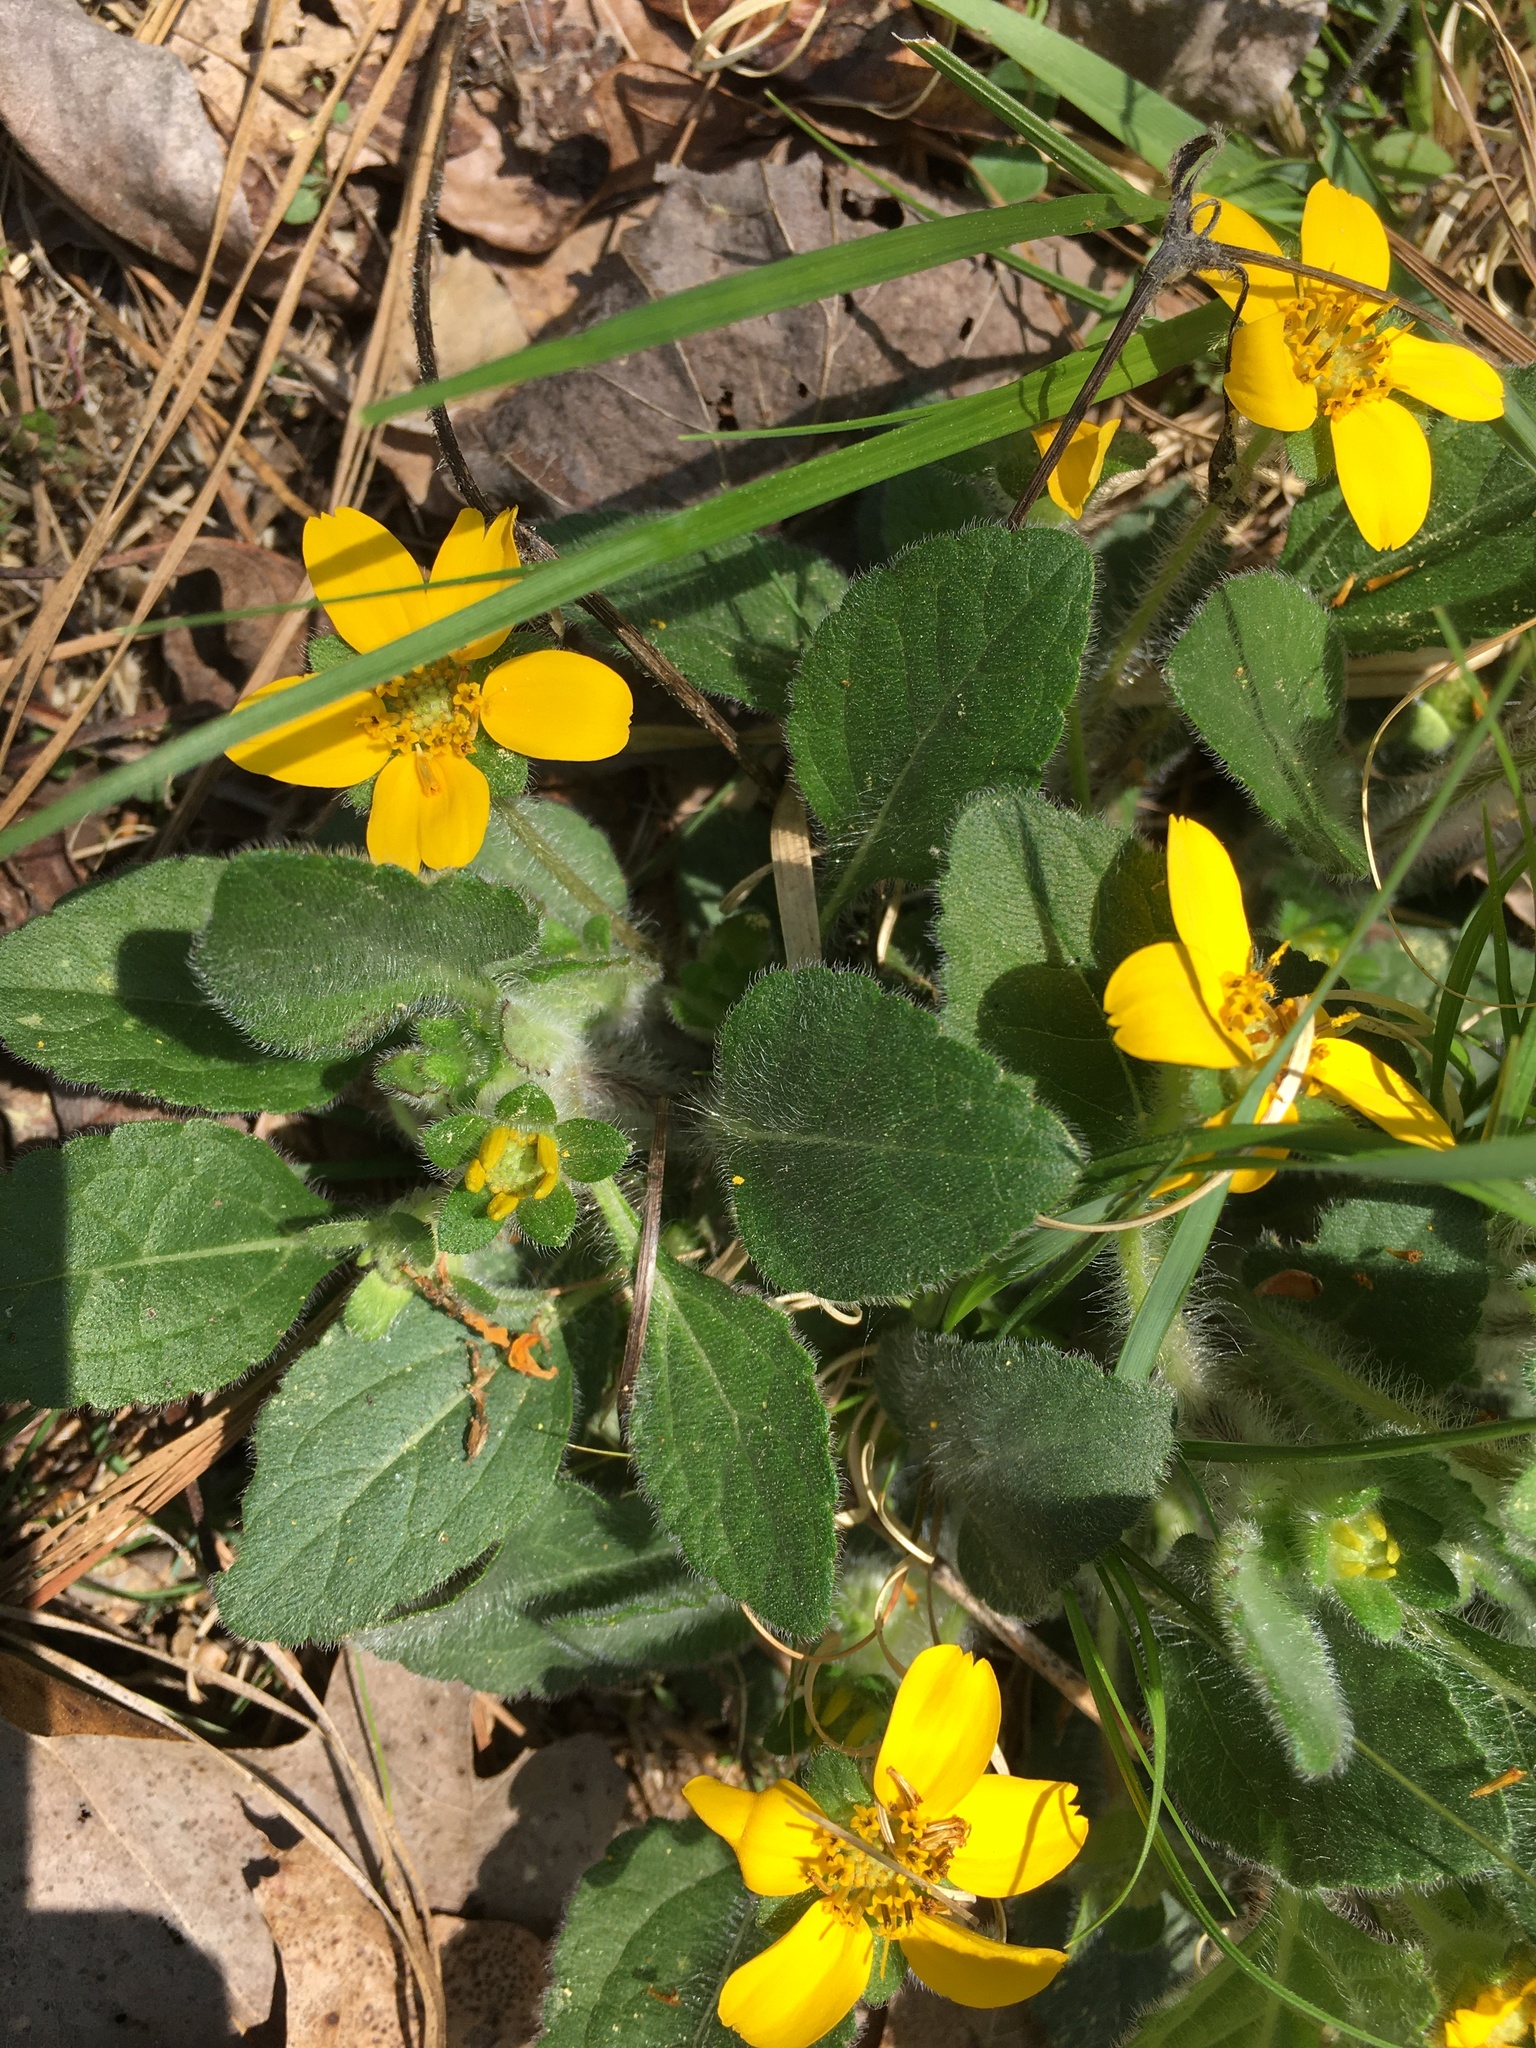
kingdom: Plantae
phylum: Tracheophyta
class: Magnoliopsida
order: Asterales
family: Asteraceae
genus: Chrysogonum
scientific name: Chrysogonum virginianum
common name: Golden-knee
